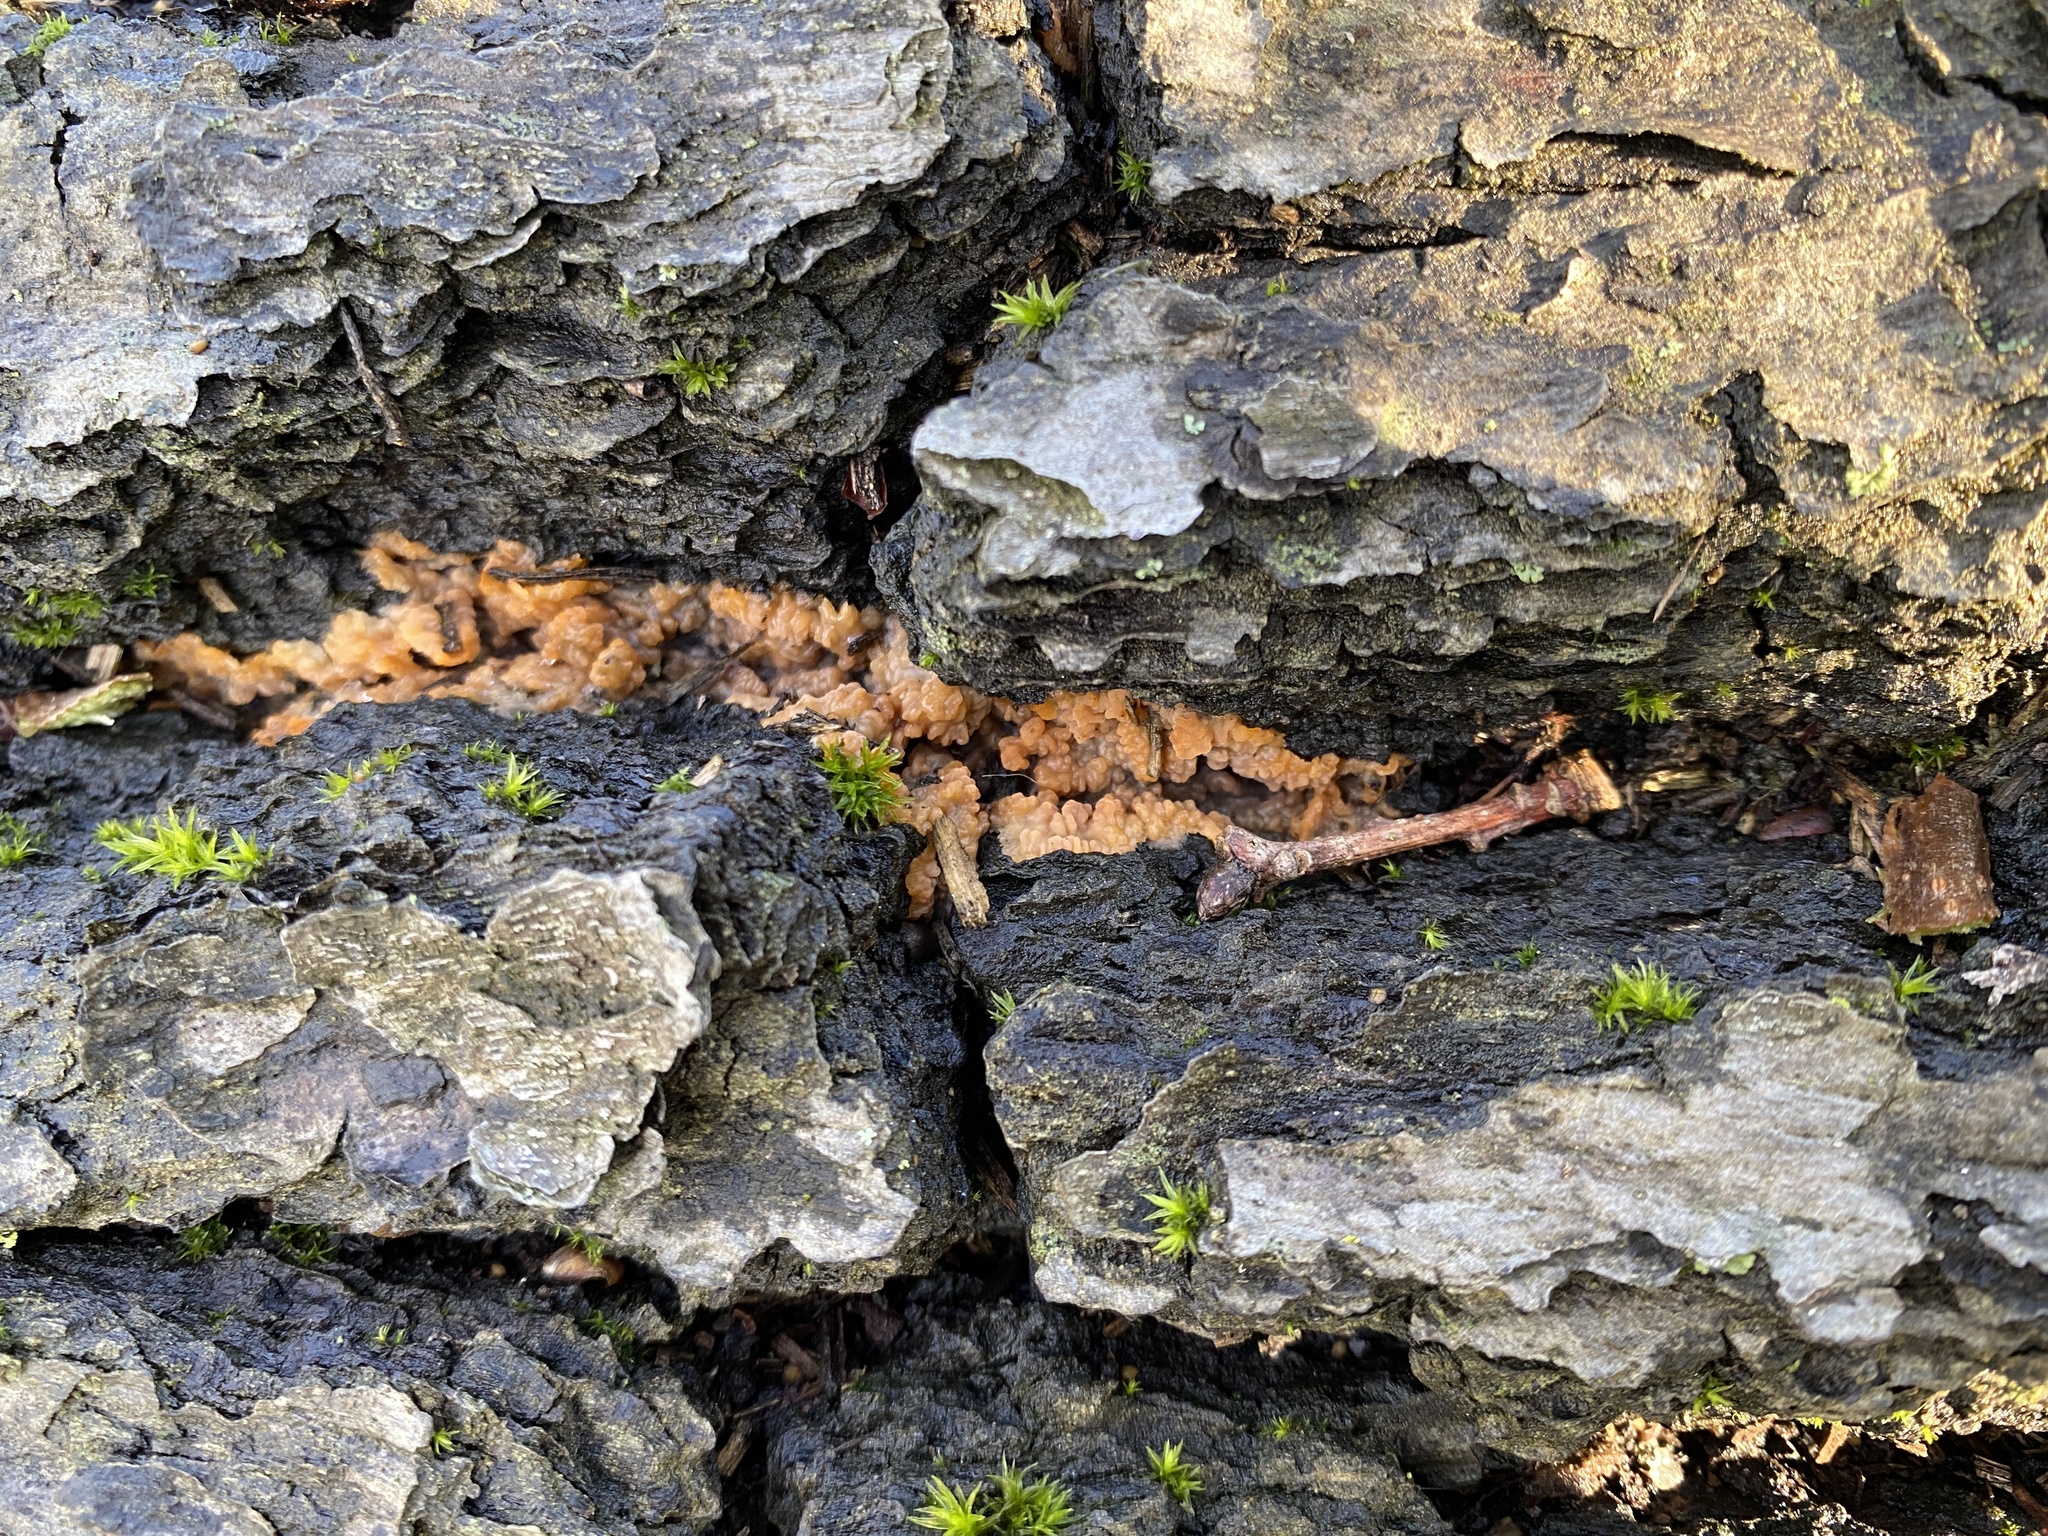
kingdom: Fungi
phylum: Basidiomycota
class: Agaricomycetes
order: Polyporales
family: Meruliaceae
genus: Phlebia
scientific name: Phlebia radiata
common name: Wrinkled crust
